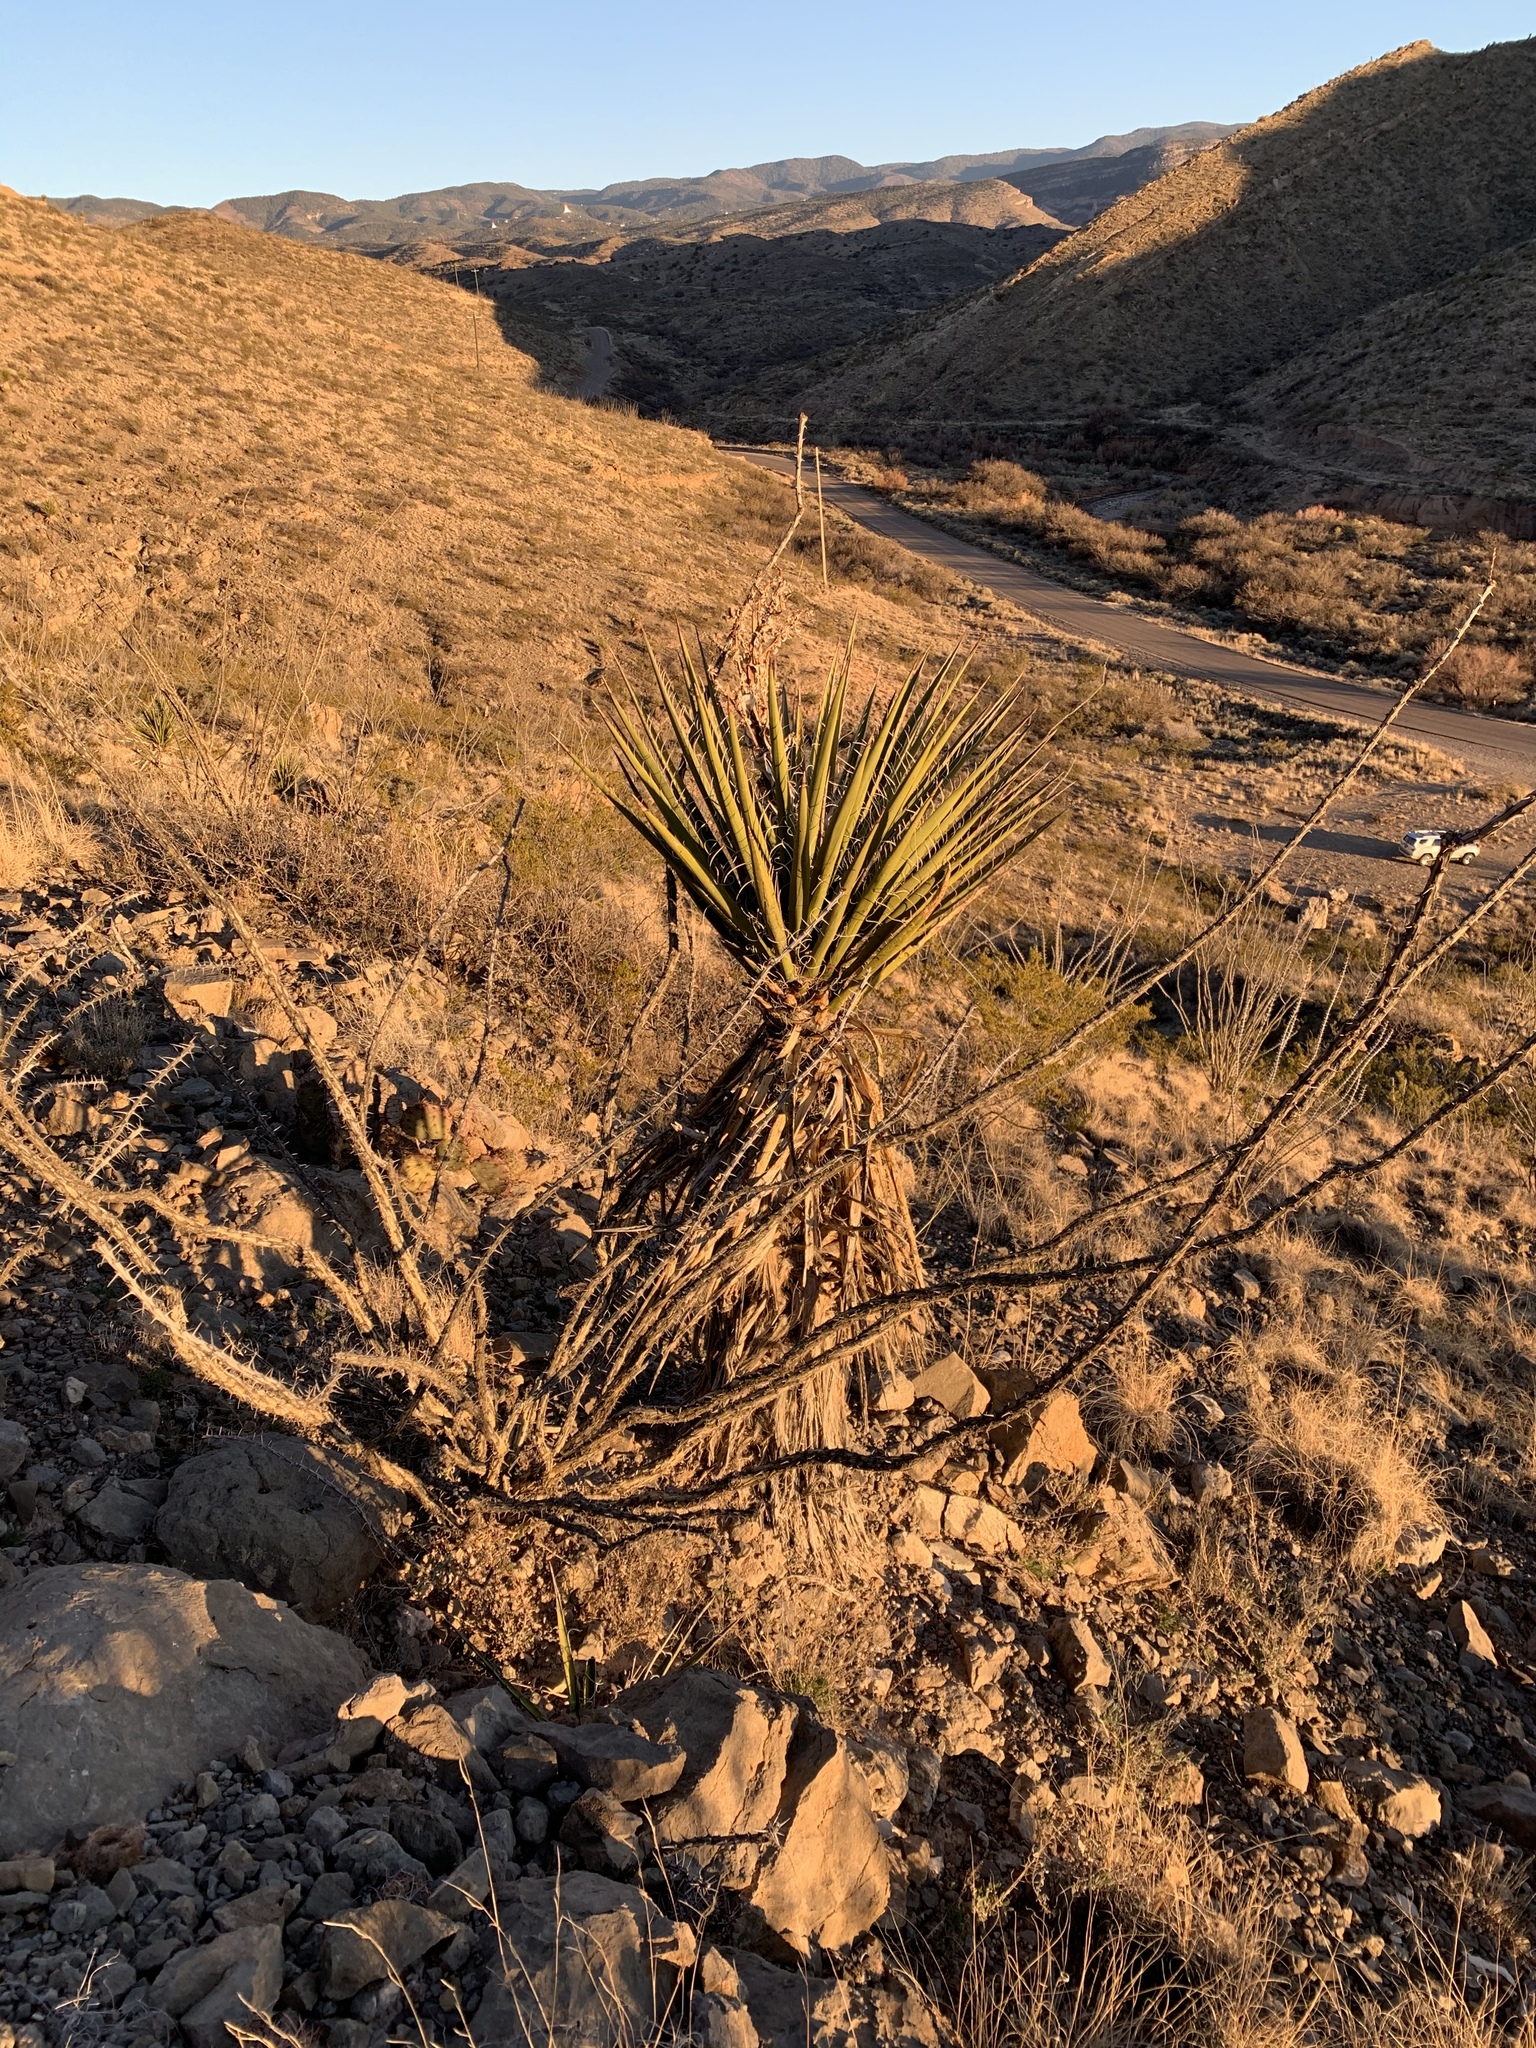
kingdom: Plantae
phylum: Tracheophyta
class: Liliopsida
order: Asparagales
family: Asparagaceae
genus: Yucca
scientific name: Yucca treculiana
